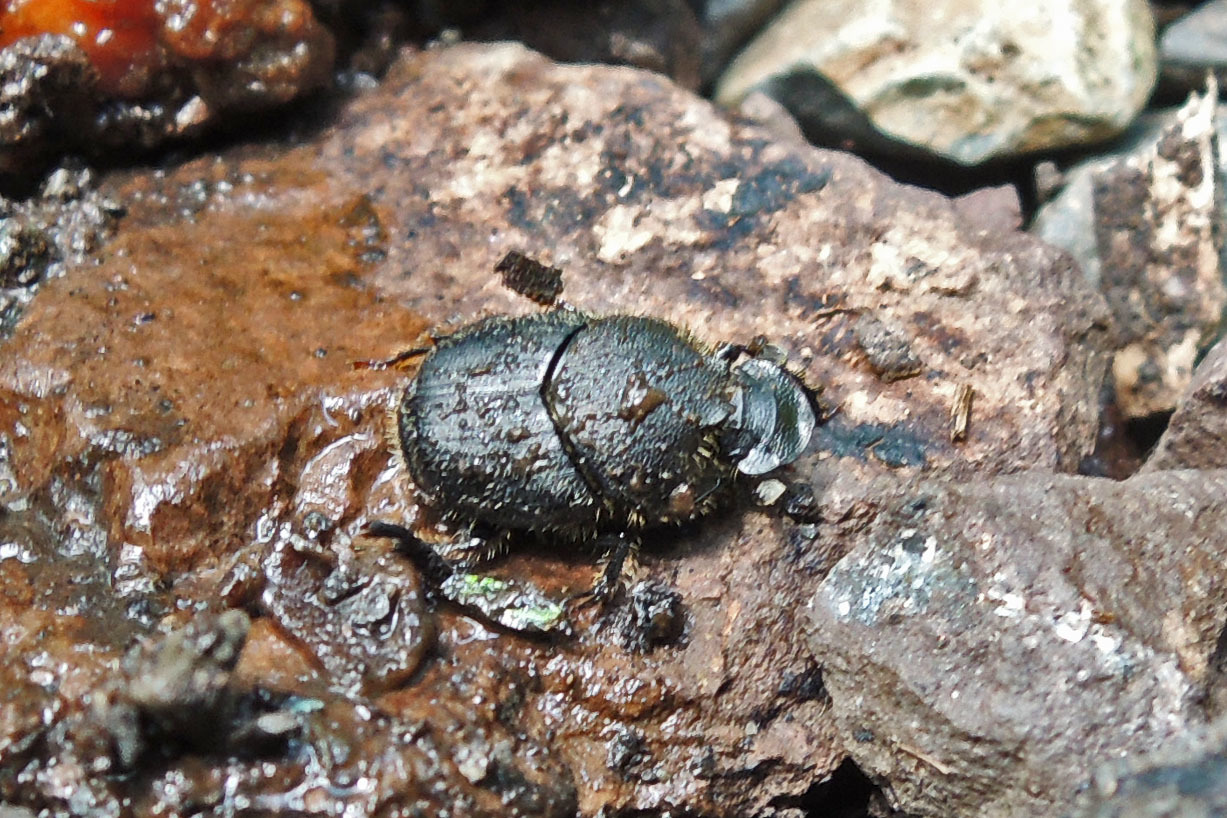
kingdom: Animalia
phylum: Arthropoda
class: Insecta
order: Coleoptera
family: Scarabaeidae
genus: Onthophagus
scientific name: Onthophagus hecate
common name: Scooped scarab
